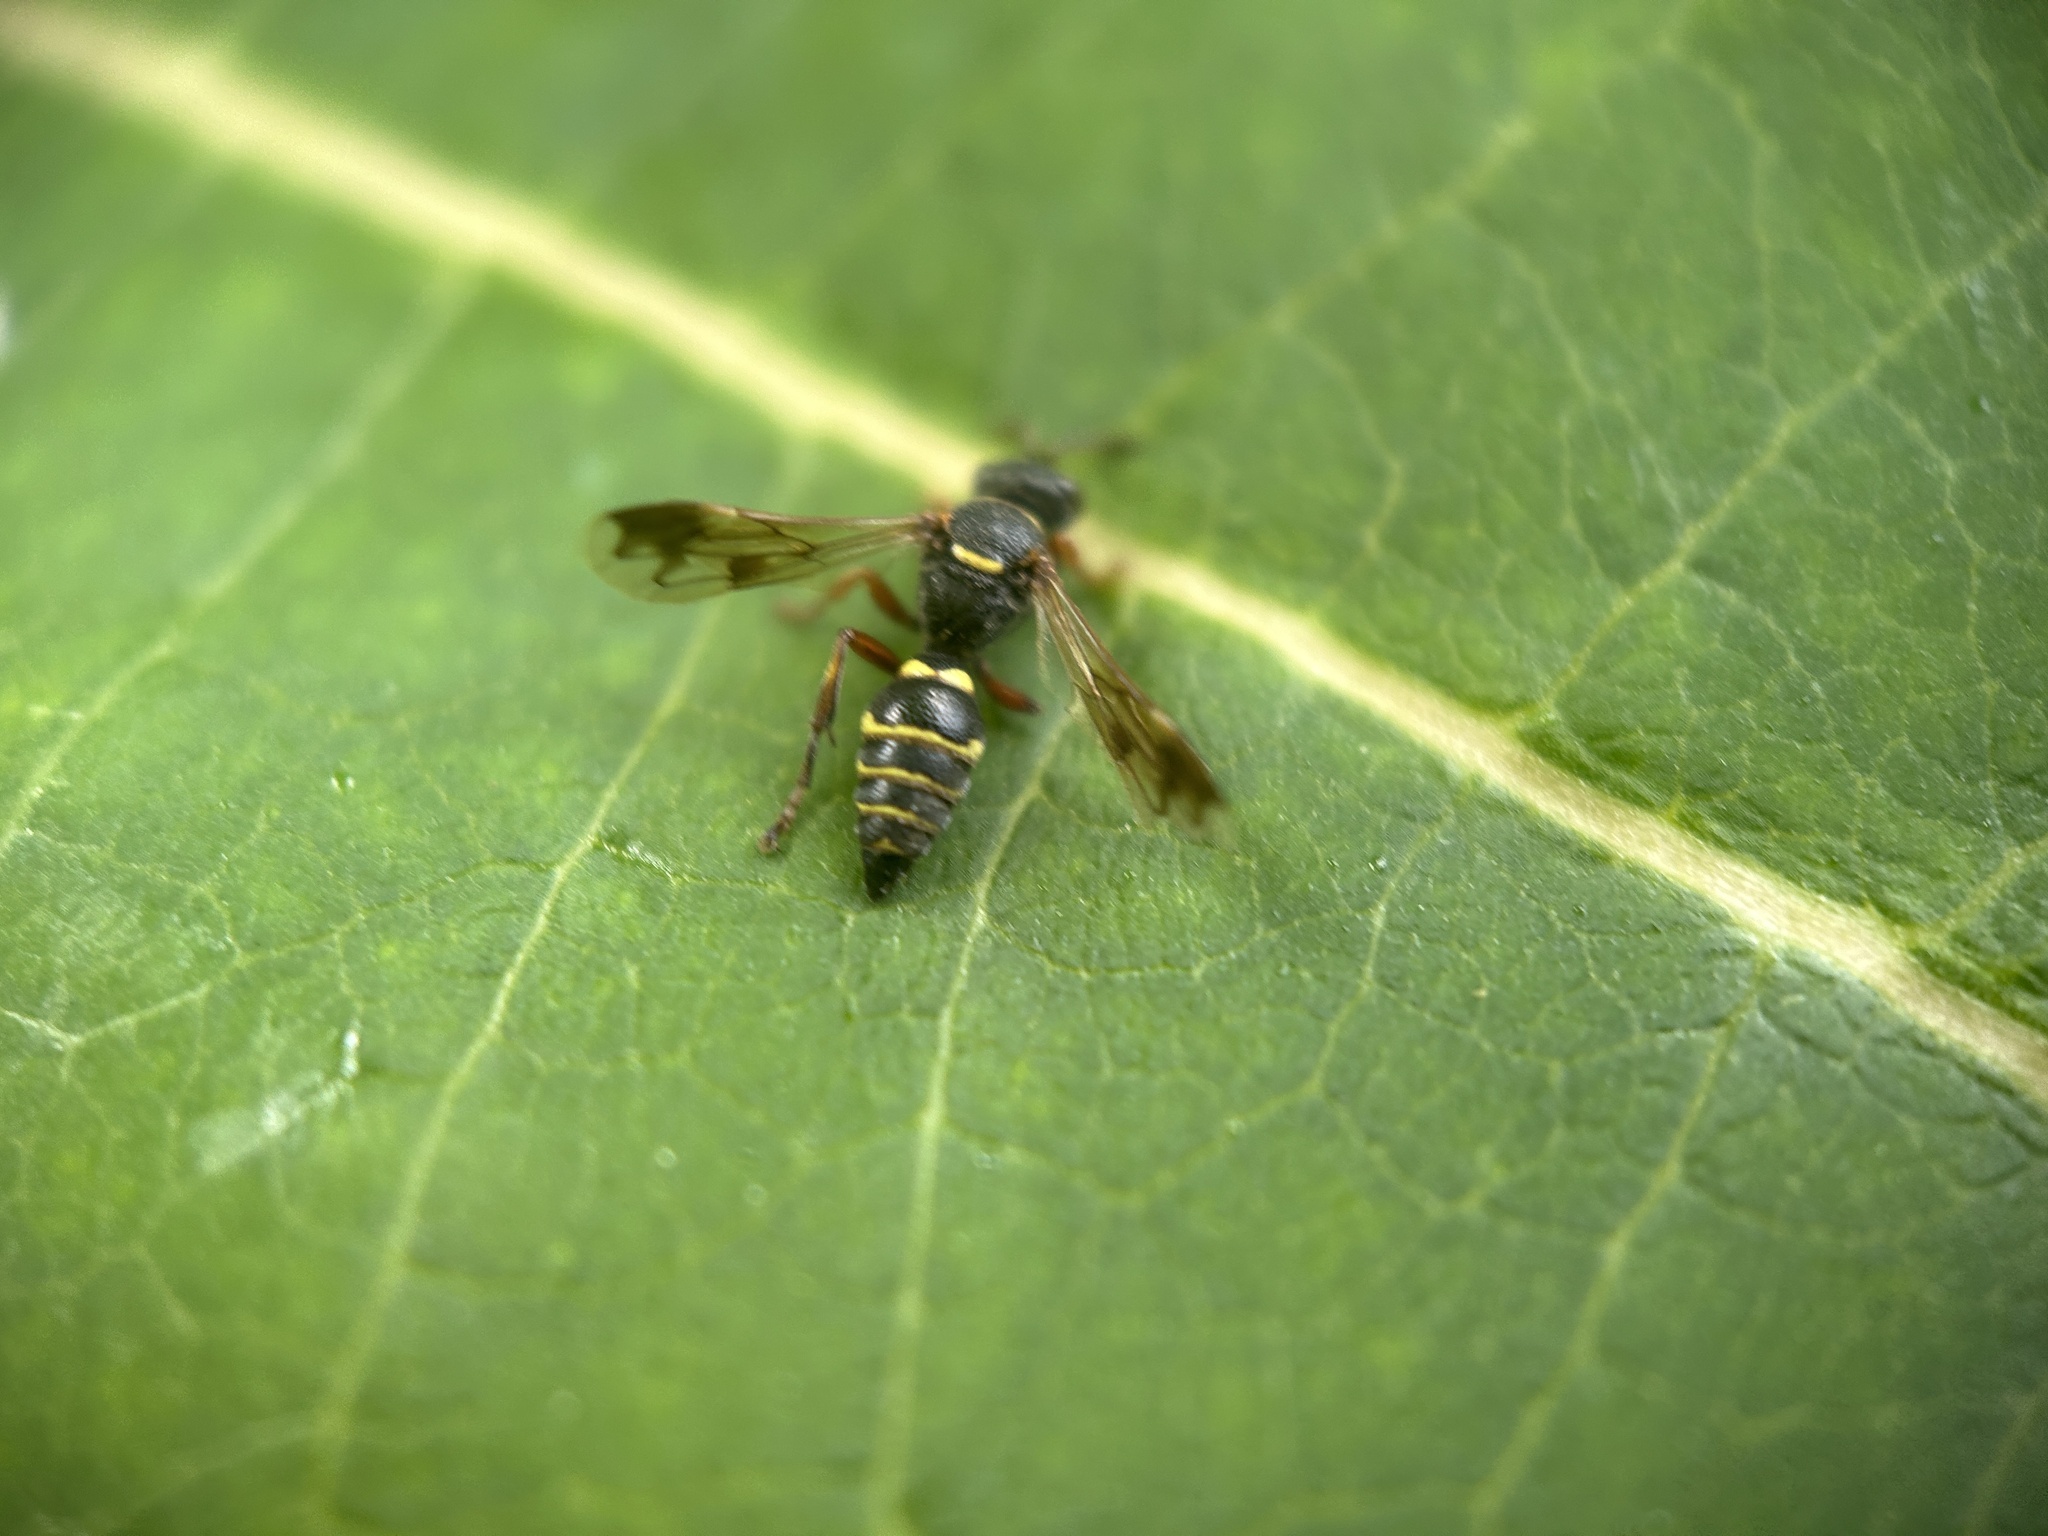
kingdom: Animalia
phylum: Arthropoda
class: Insecta
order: Hymenoptera
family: Crabronidae
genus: Hoplisoides
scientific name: Hoplisoides nebulosus
